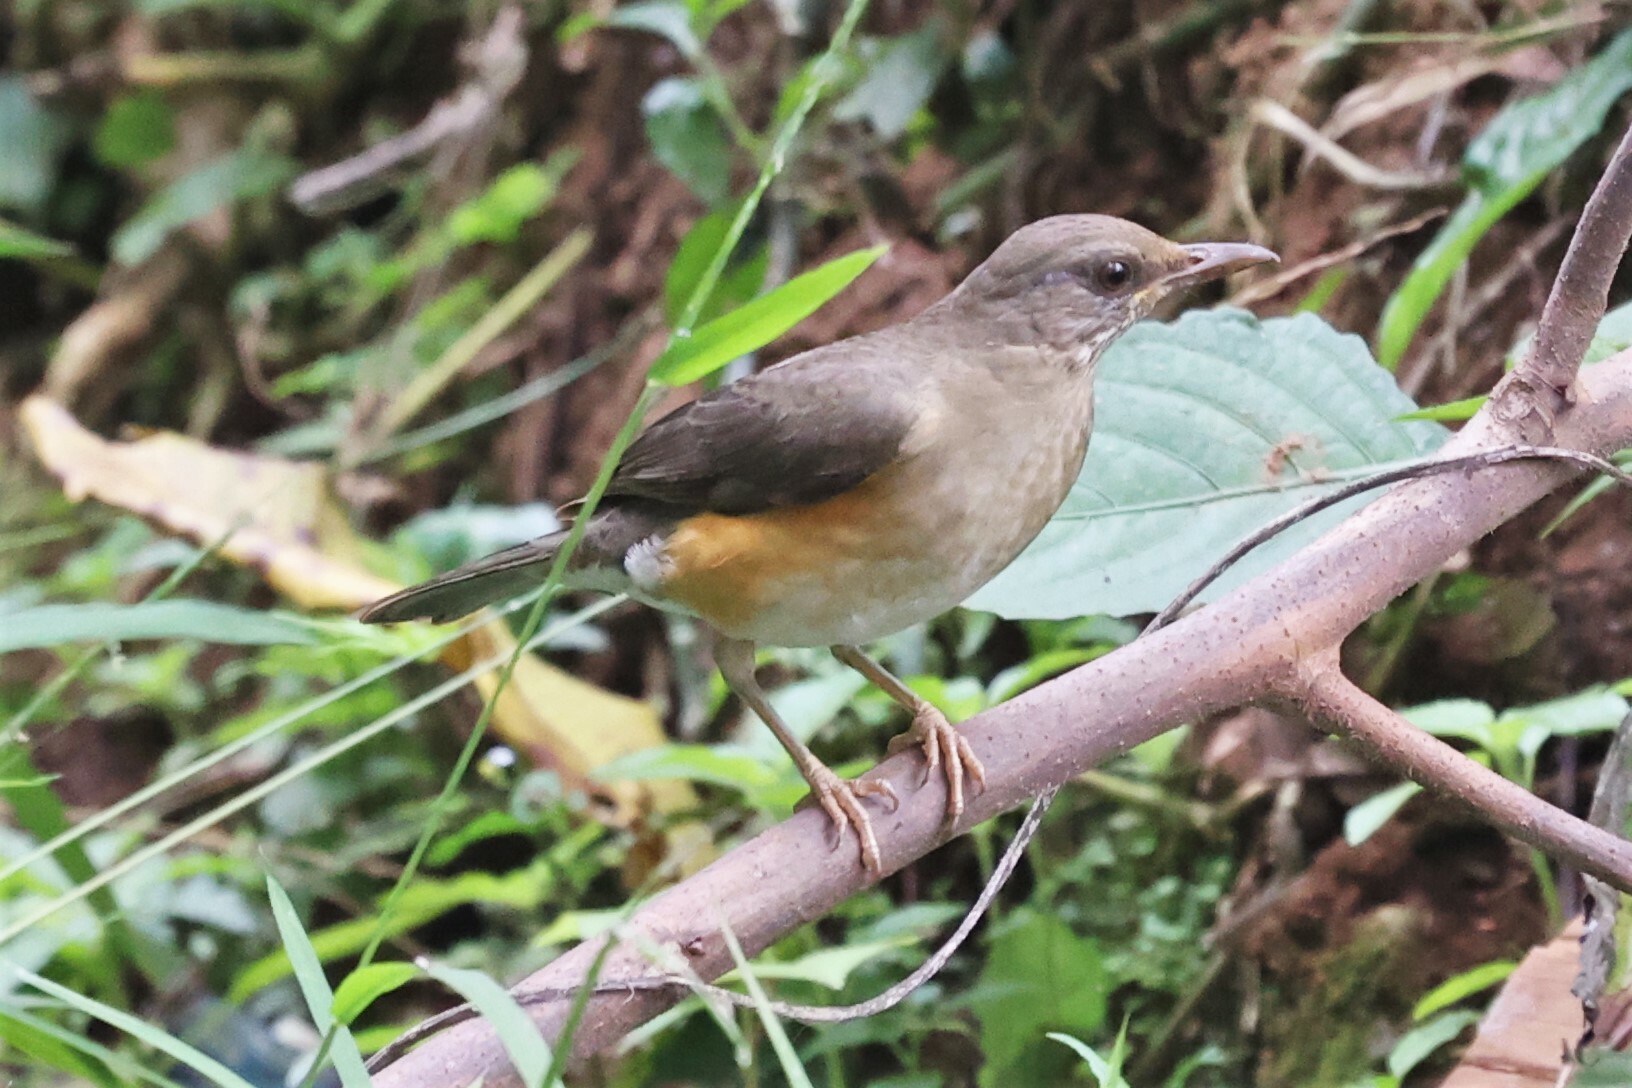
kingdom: Animalia
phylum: Chordata
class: Aves
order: Passeriformes
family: Turdidae
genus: Turdus
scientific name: Turdus pelios
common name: African thrush
